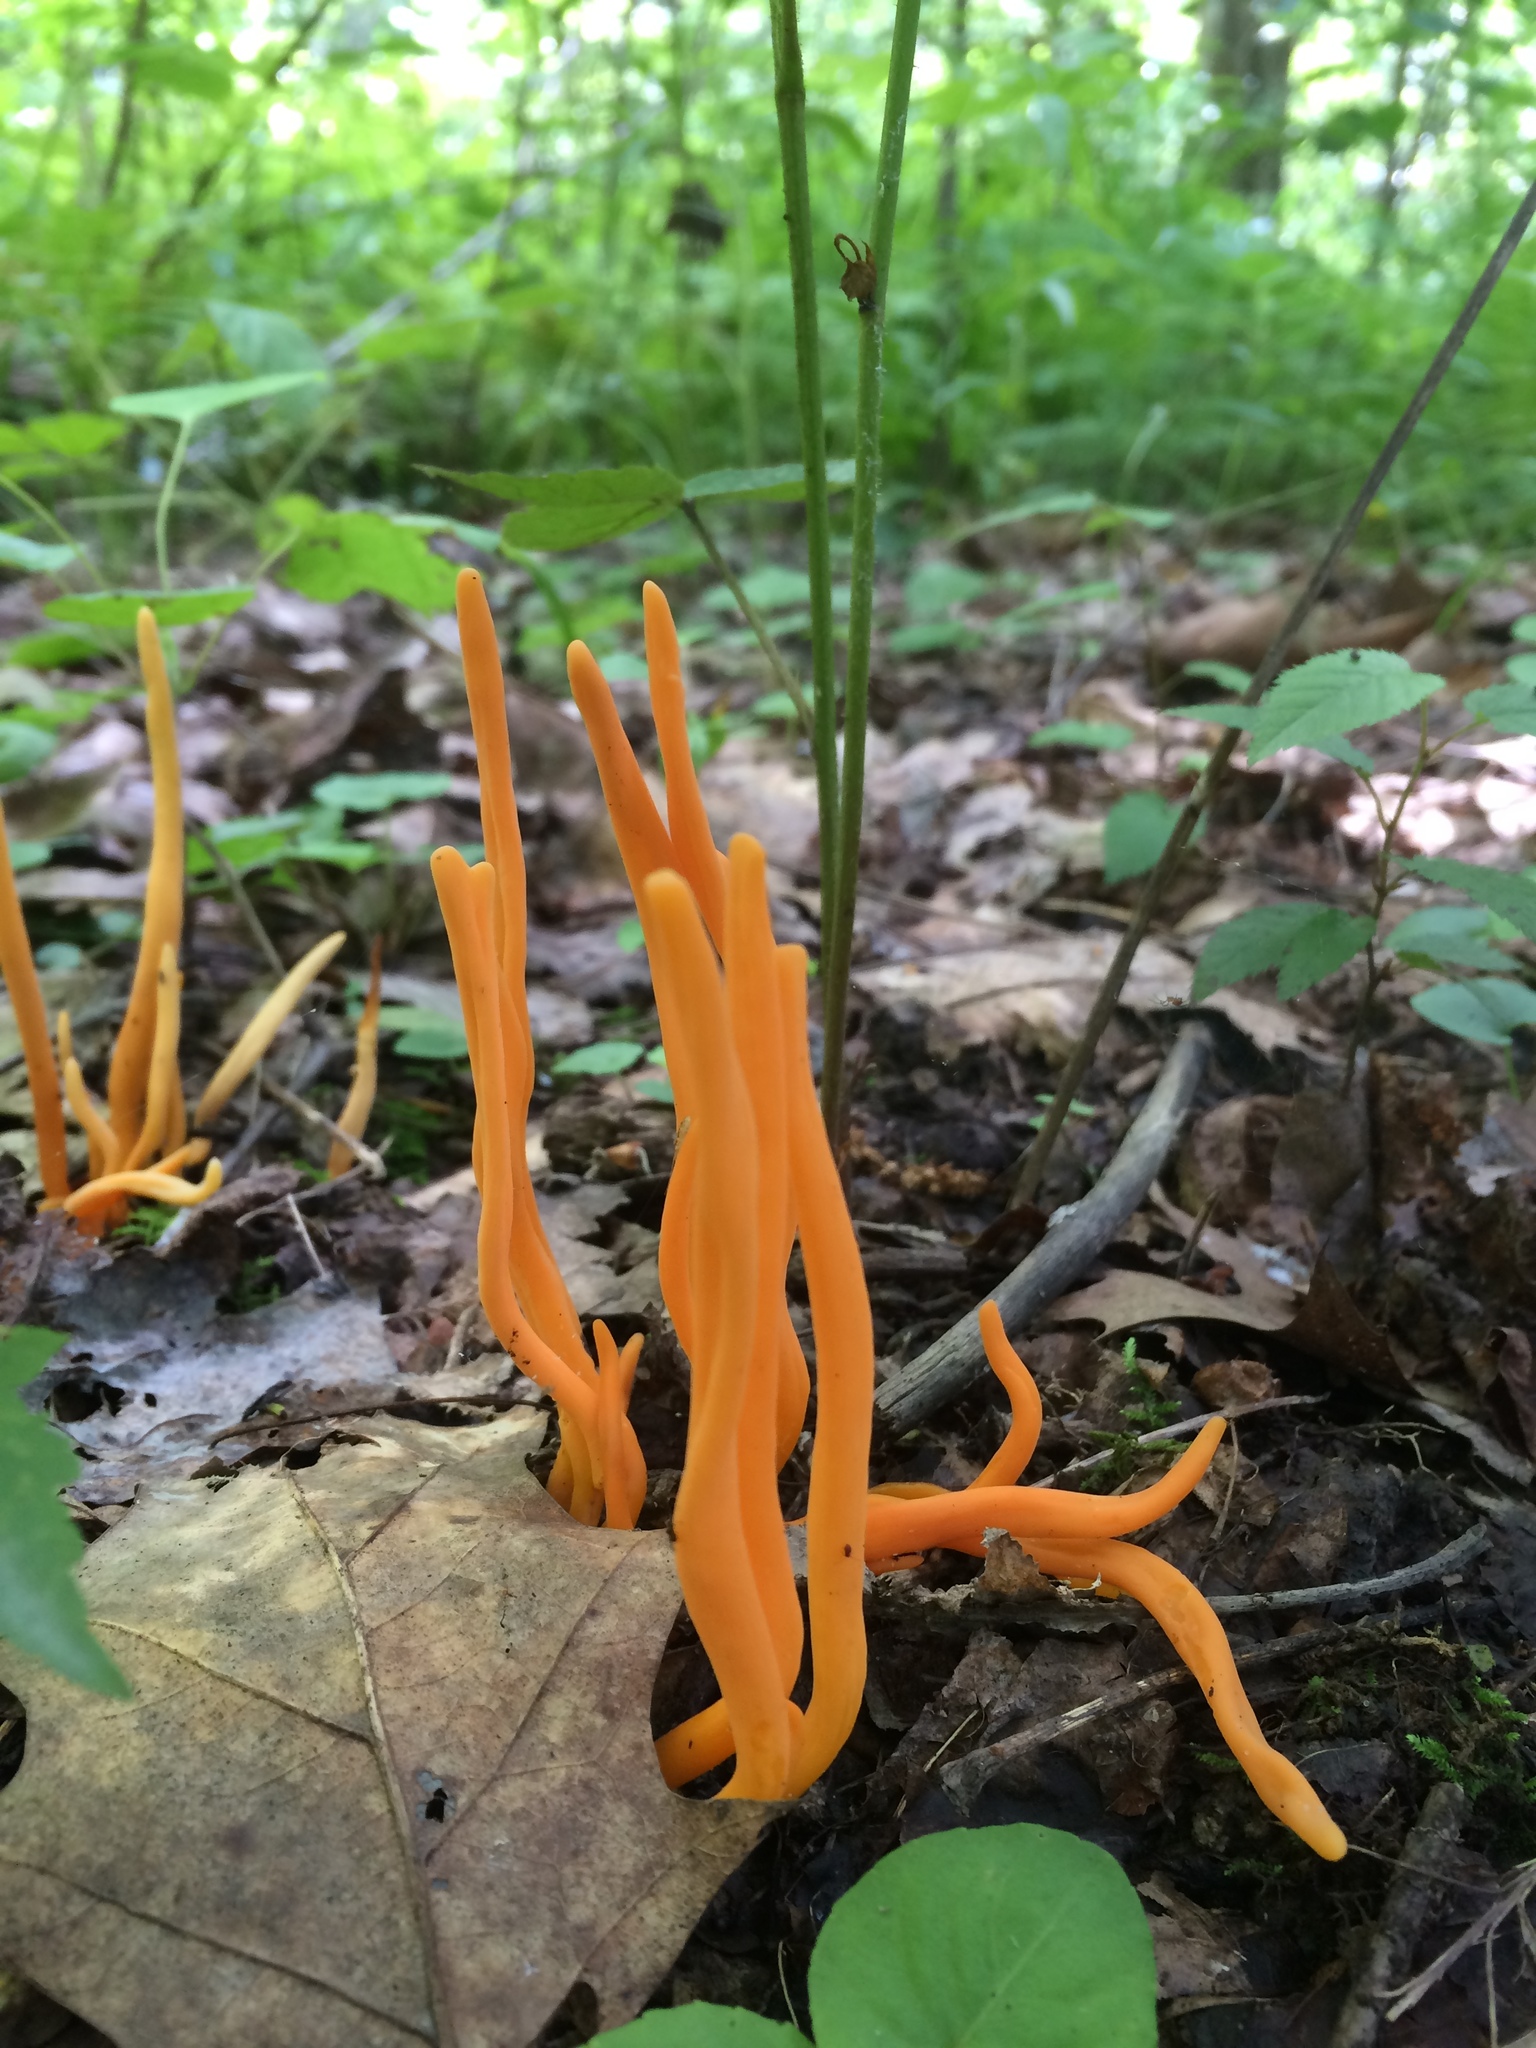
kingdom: Fungi
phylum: Basidiomycota
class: Agaricomycetes
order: Agaricales
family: Clavariaceae
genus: Clavulinopsis
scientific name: Clavulinopsis aurantiocinnabarina
